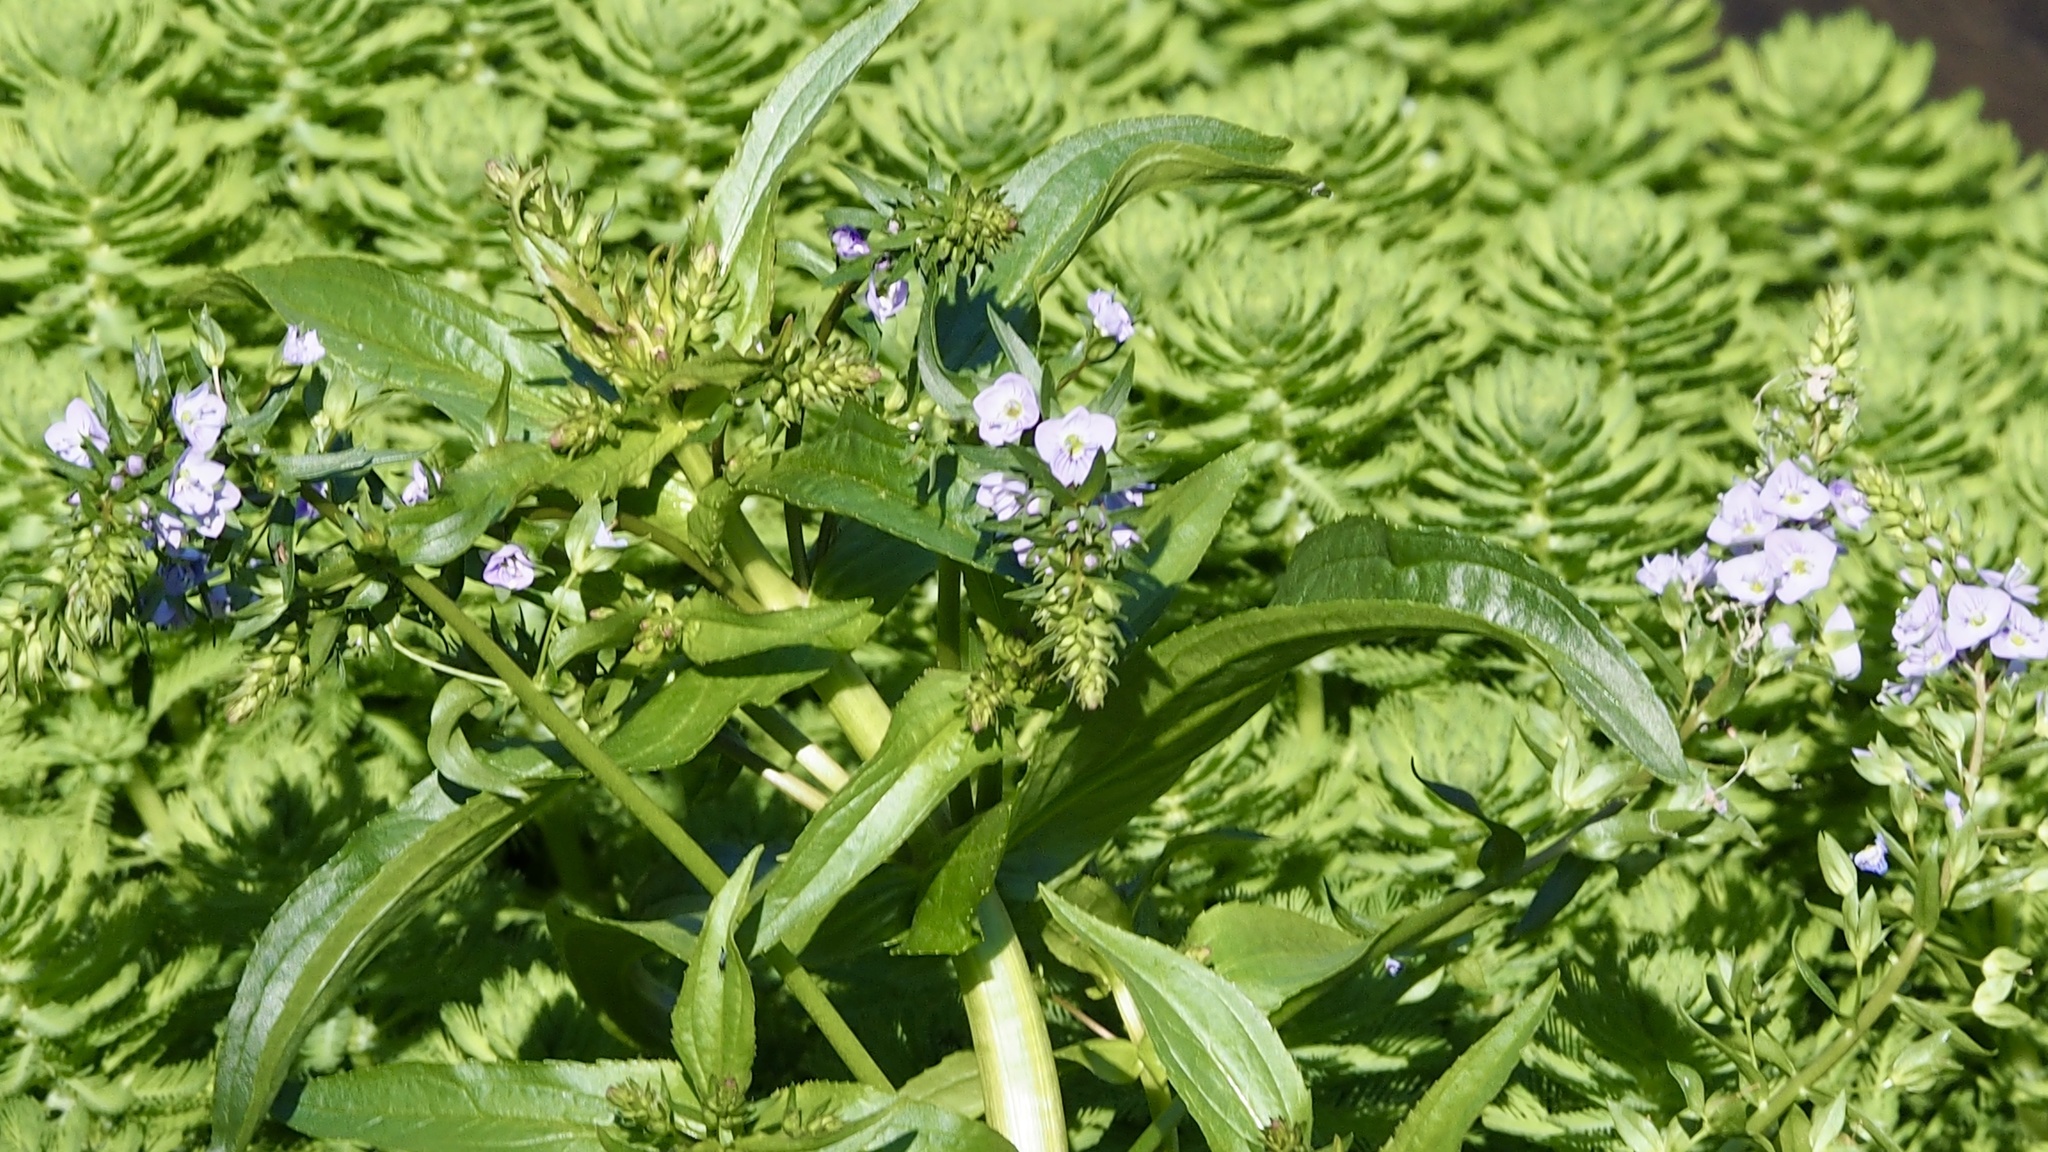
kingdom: Plantae
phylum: Tracheophyta
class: Magnoliopsida
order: Lamiales
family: Plantaginaceae
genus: Veronica
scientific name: Veronica anagallis-aquatica
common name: Water speedwell
